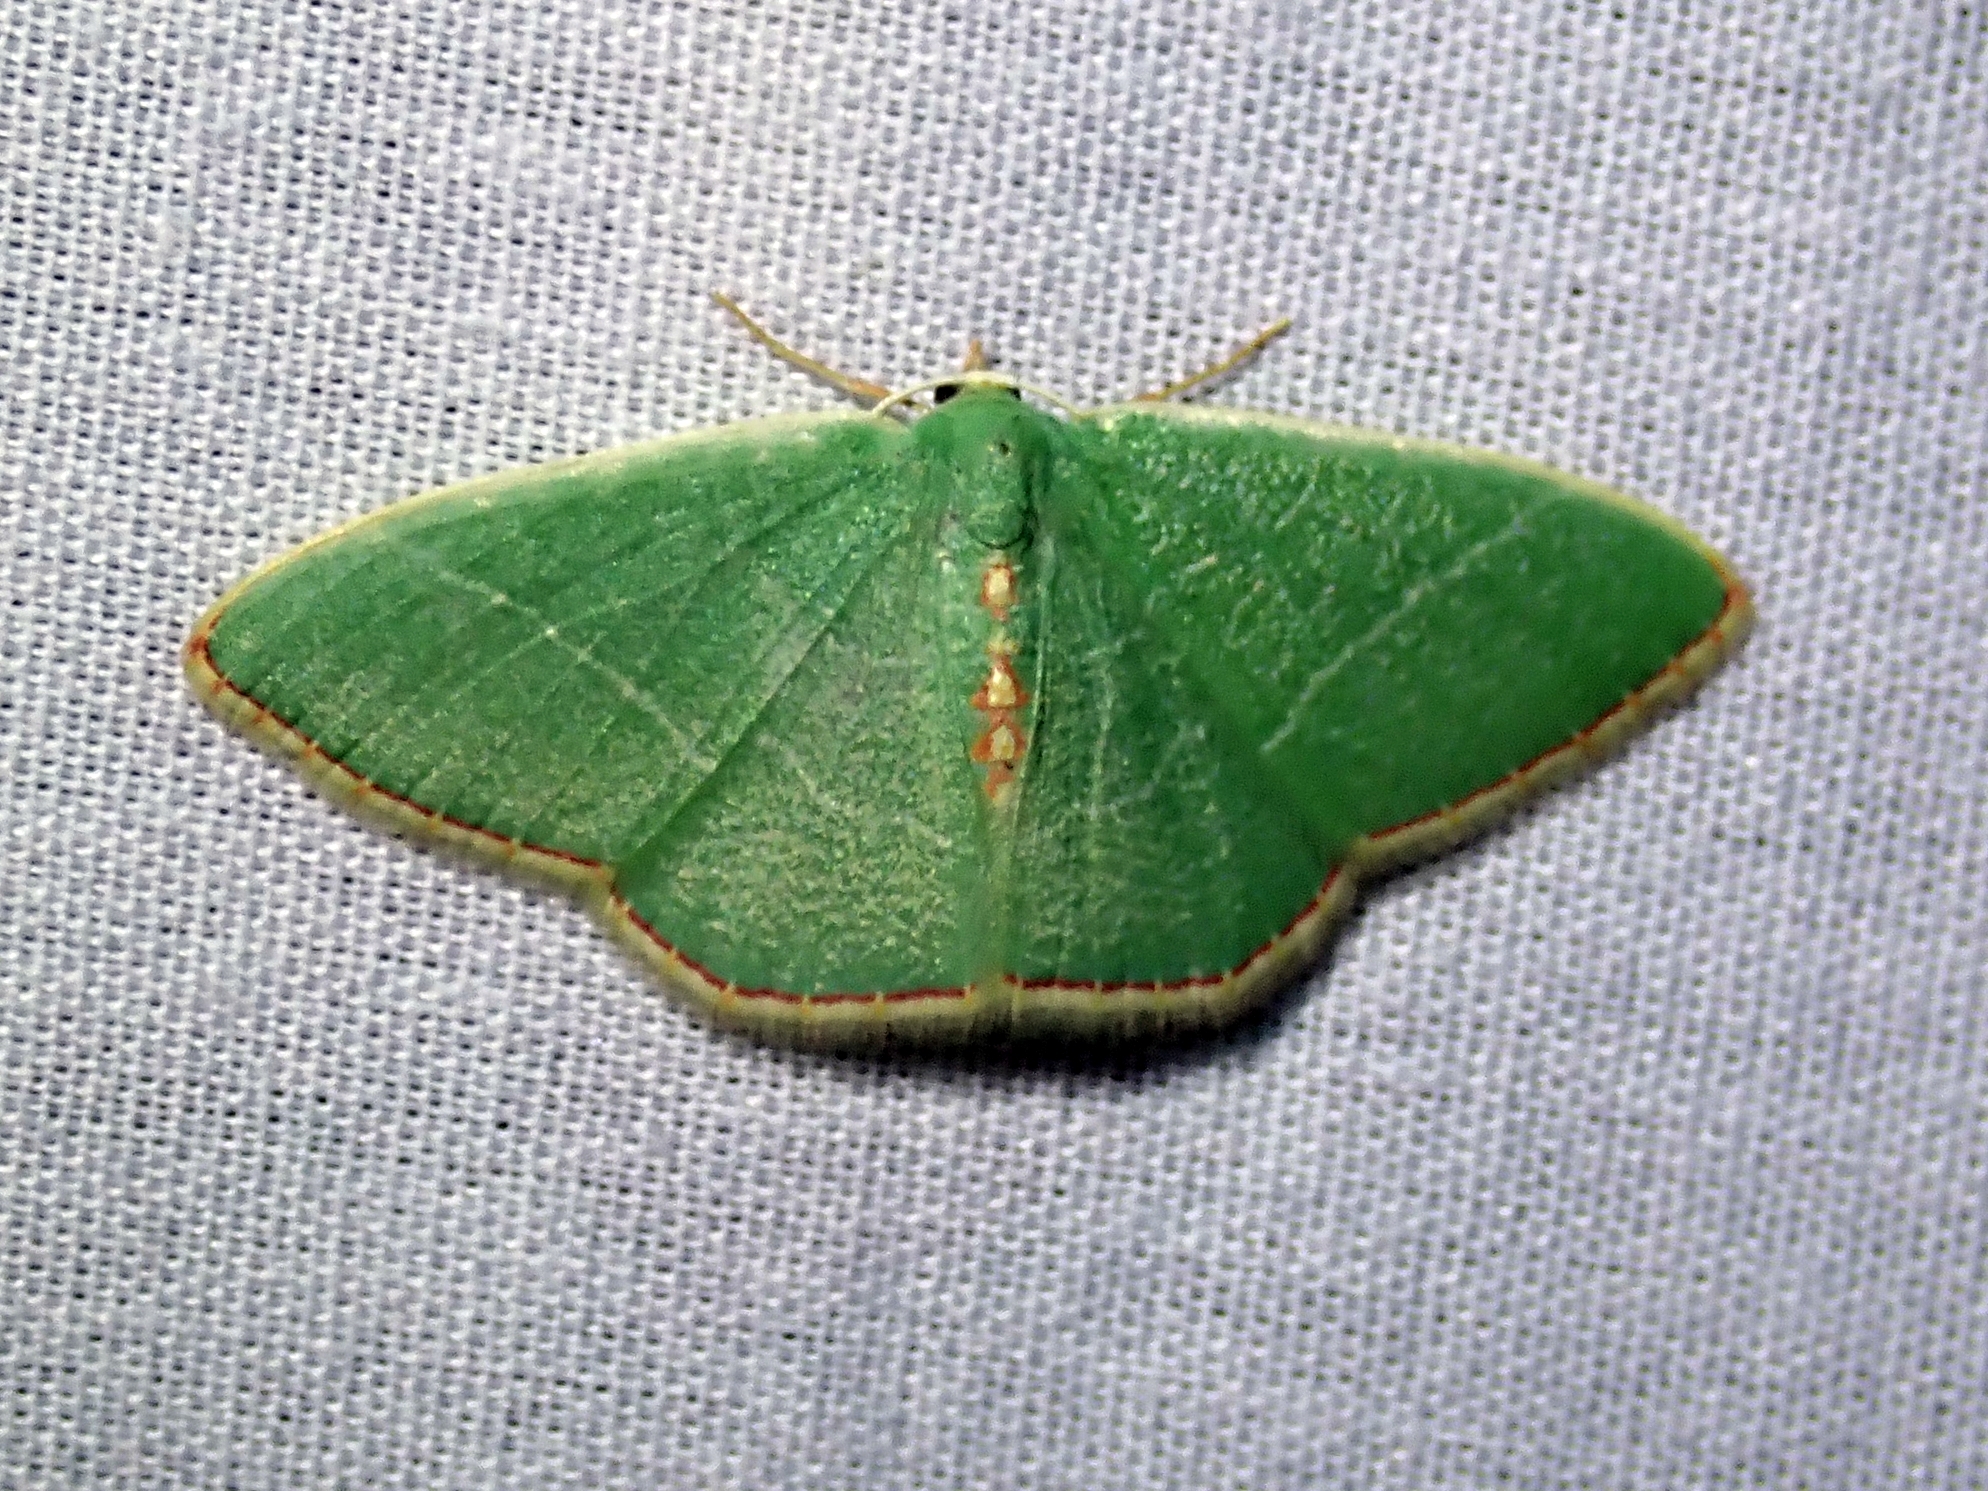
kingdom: Animalia
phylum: Arthropoda
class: Insecta
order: Lepidoptera
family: Geometridae
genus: Nemoria
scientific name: Nemoria festaria
